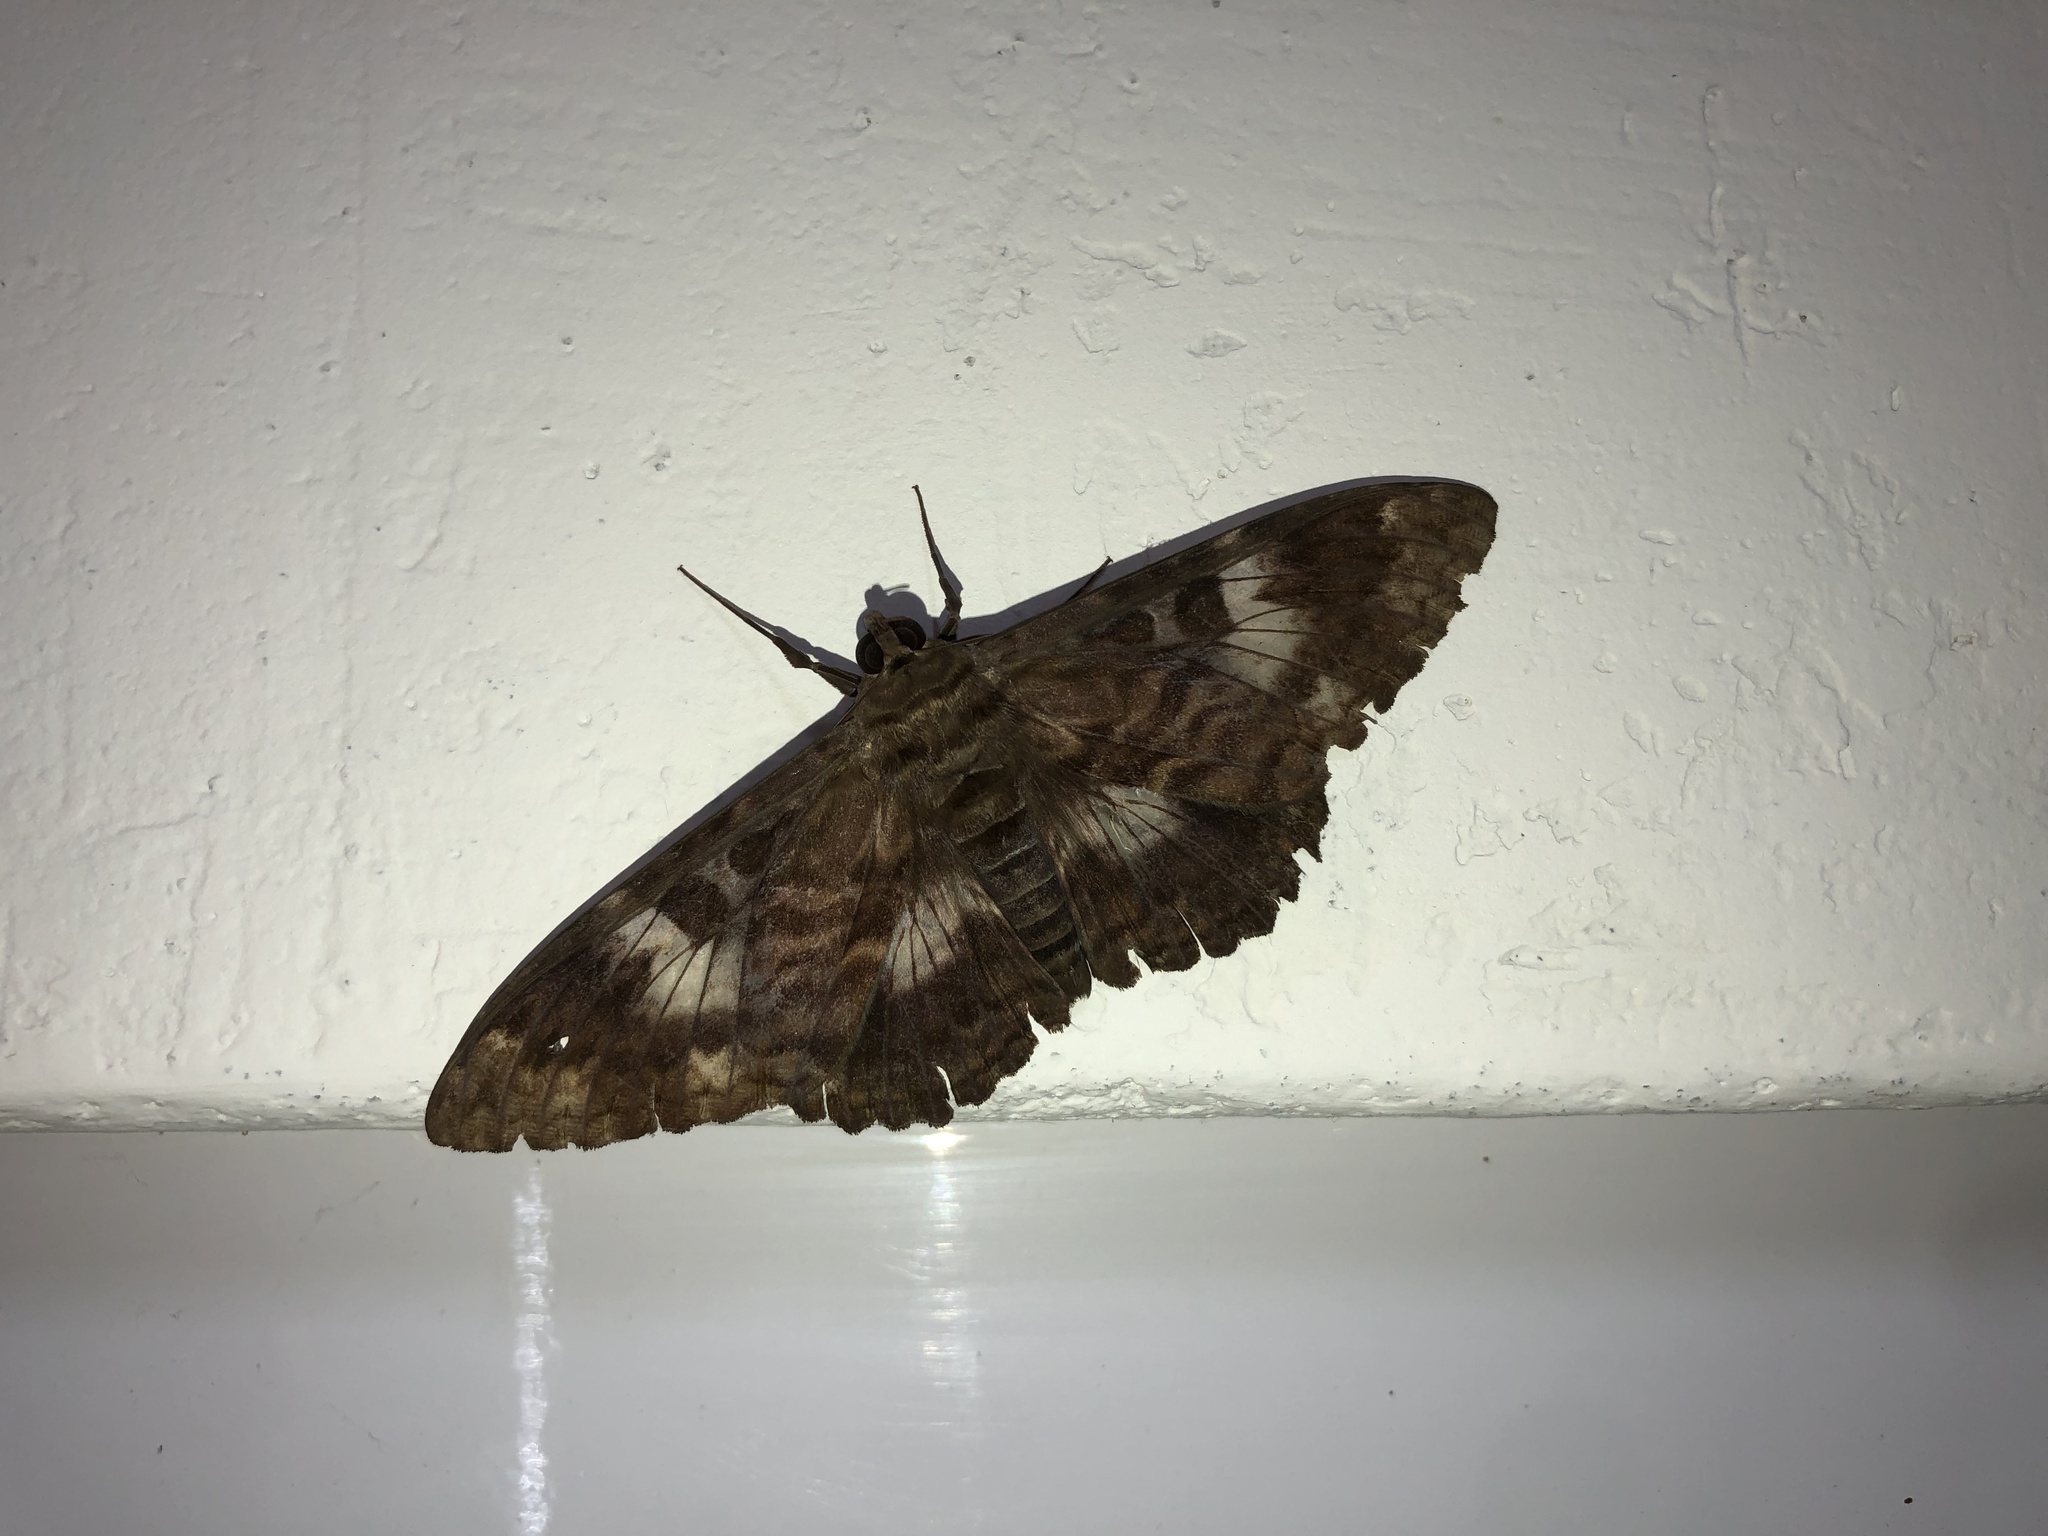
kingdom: Animalia
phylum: Arthropoda
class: Insecta
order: Lepidoptera
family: Erebidae
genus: Letis
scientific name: Letis specularis
